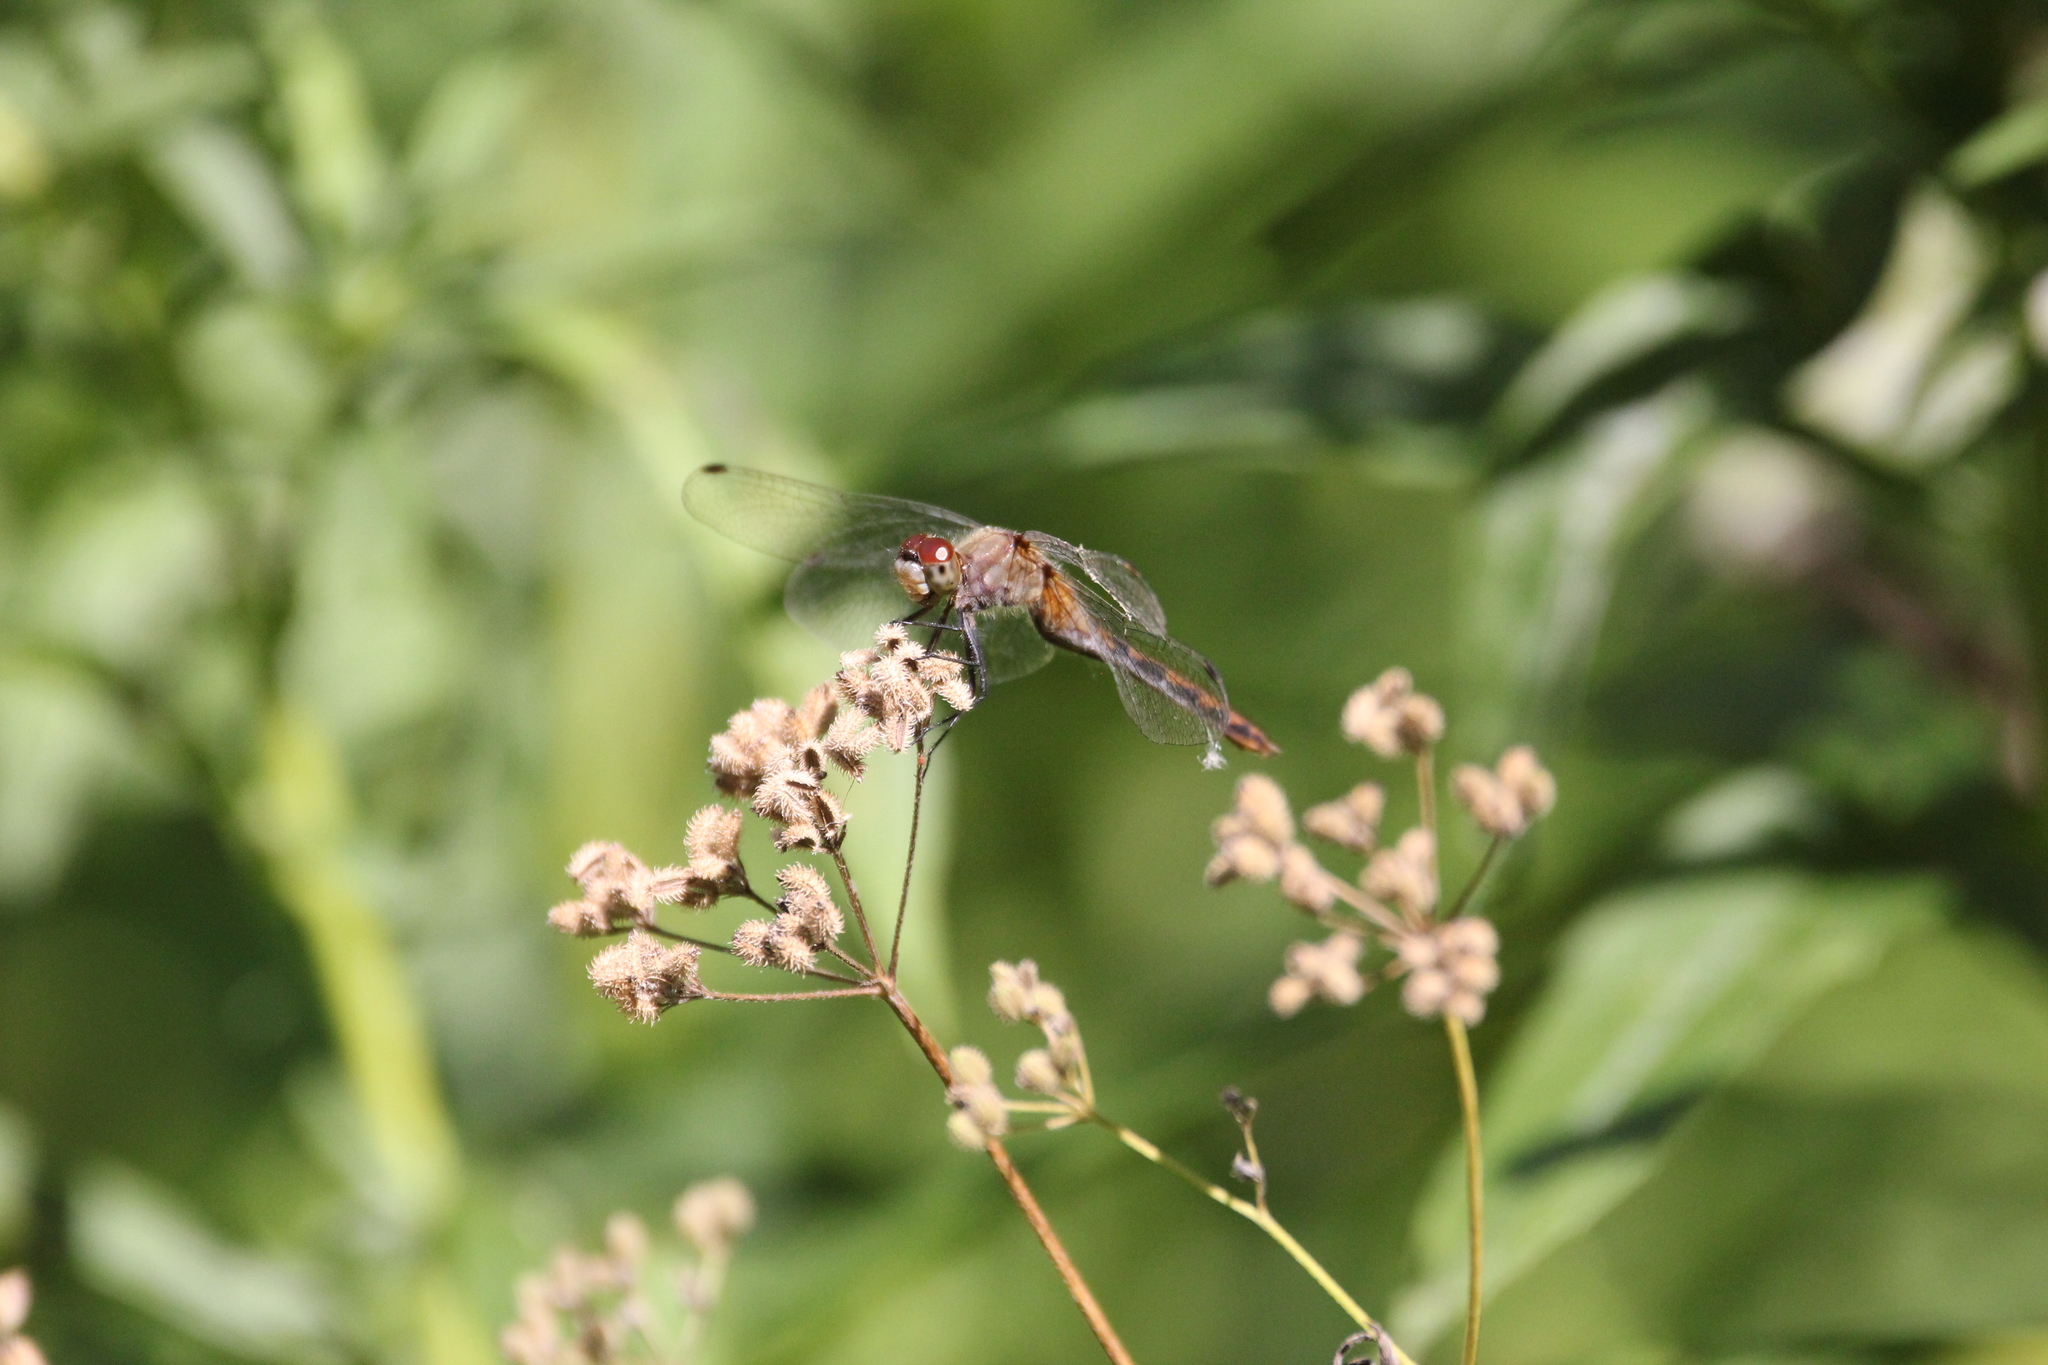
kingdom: Animalia
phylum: Arthropoda
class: Insecta
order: Odonata
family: Libellulidae
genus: Sympetrum
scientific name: Sympetrum obtrusum
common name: White-faced meadowhawk
